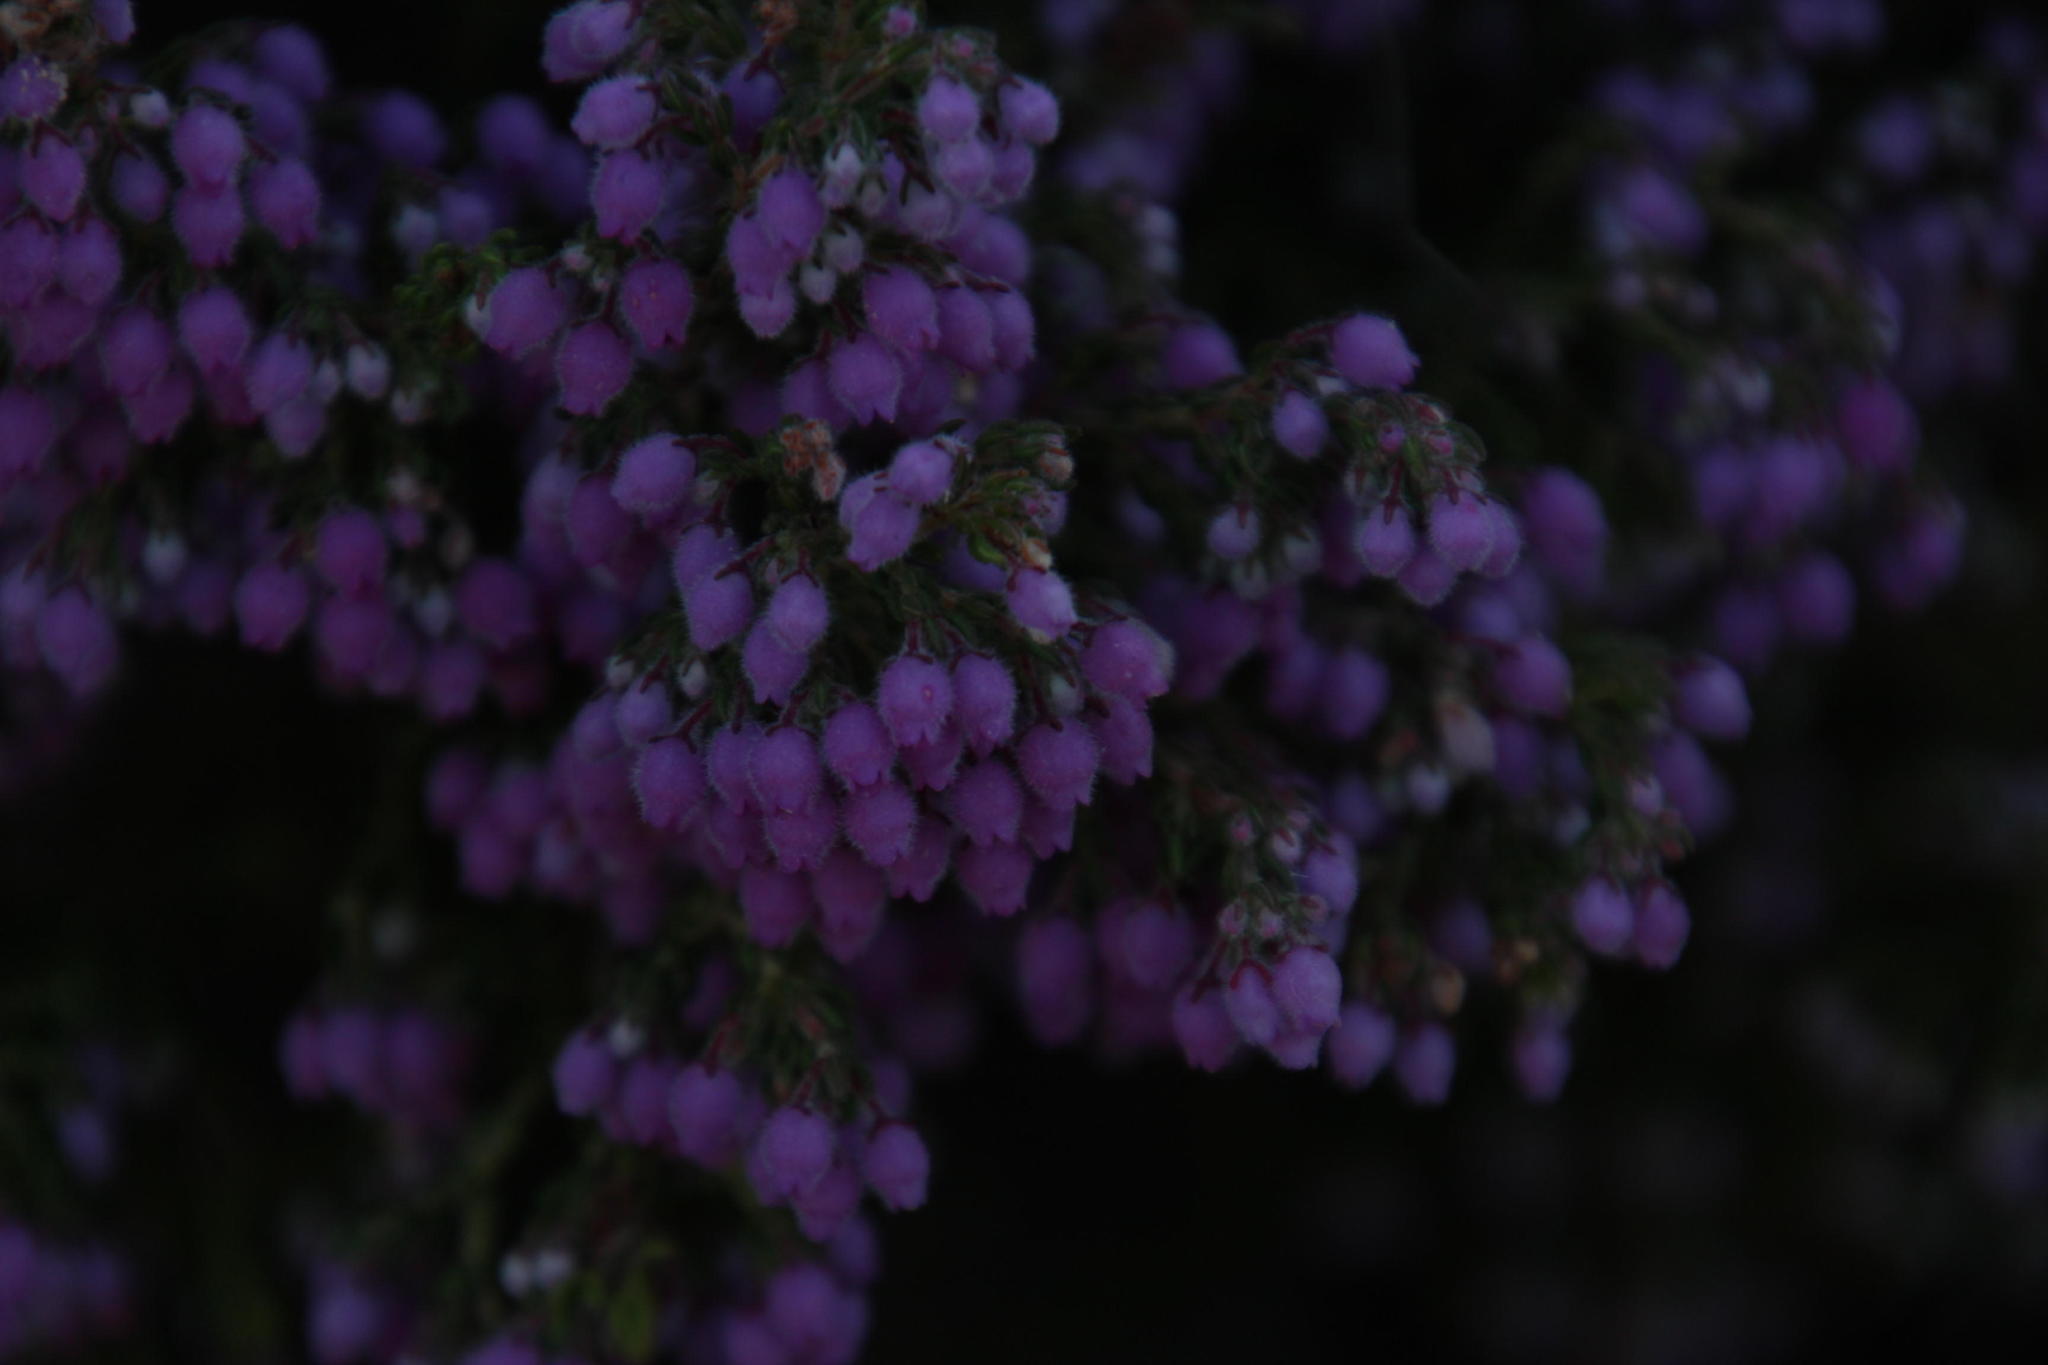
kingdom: Plantae
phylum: Tracheophyta
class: Magnoliopsida
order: Ericales
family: Ericaceae
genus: Erica
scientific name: Erica hirtiflora
